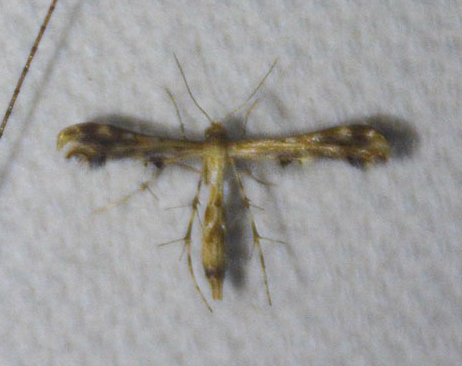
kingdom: Animalia
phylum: Arthropoda
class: Insecta
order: Lepidoptera
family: Pterophoridae
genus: Sphenarches
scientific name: Sphenarches anisodactylus
